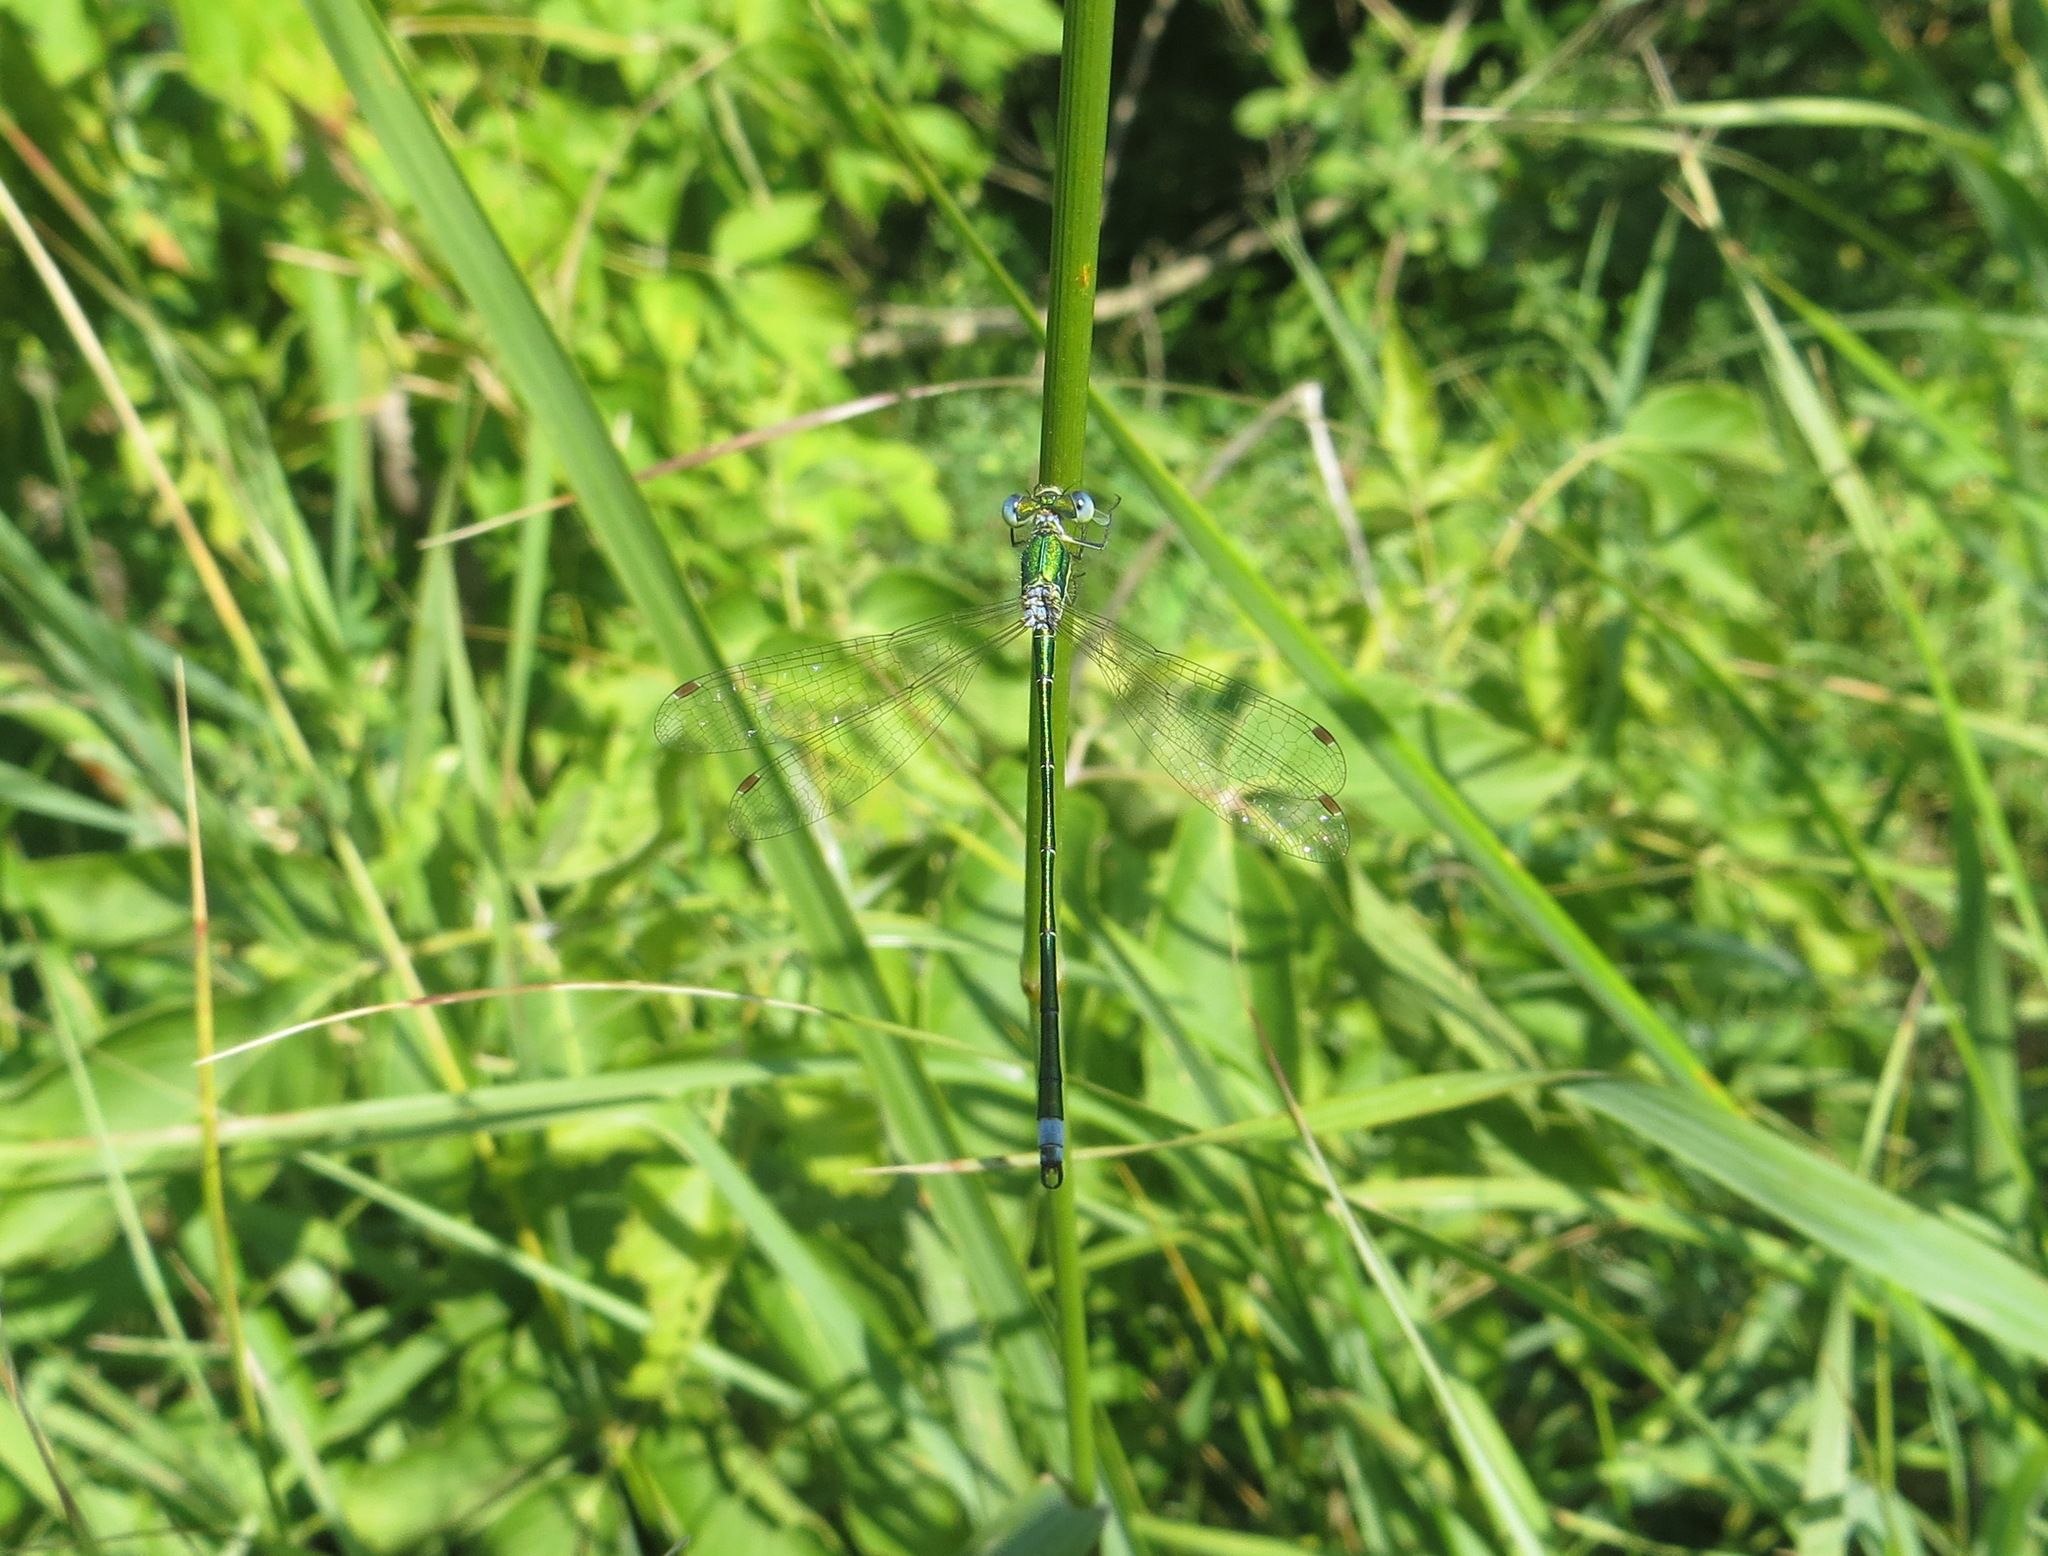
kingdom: Animalia
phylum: Arthropoda
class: Insecta
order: Odonata
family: Lestidae
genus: Lestes
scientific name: Lestes virens
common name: Small emerald spreadwing
